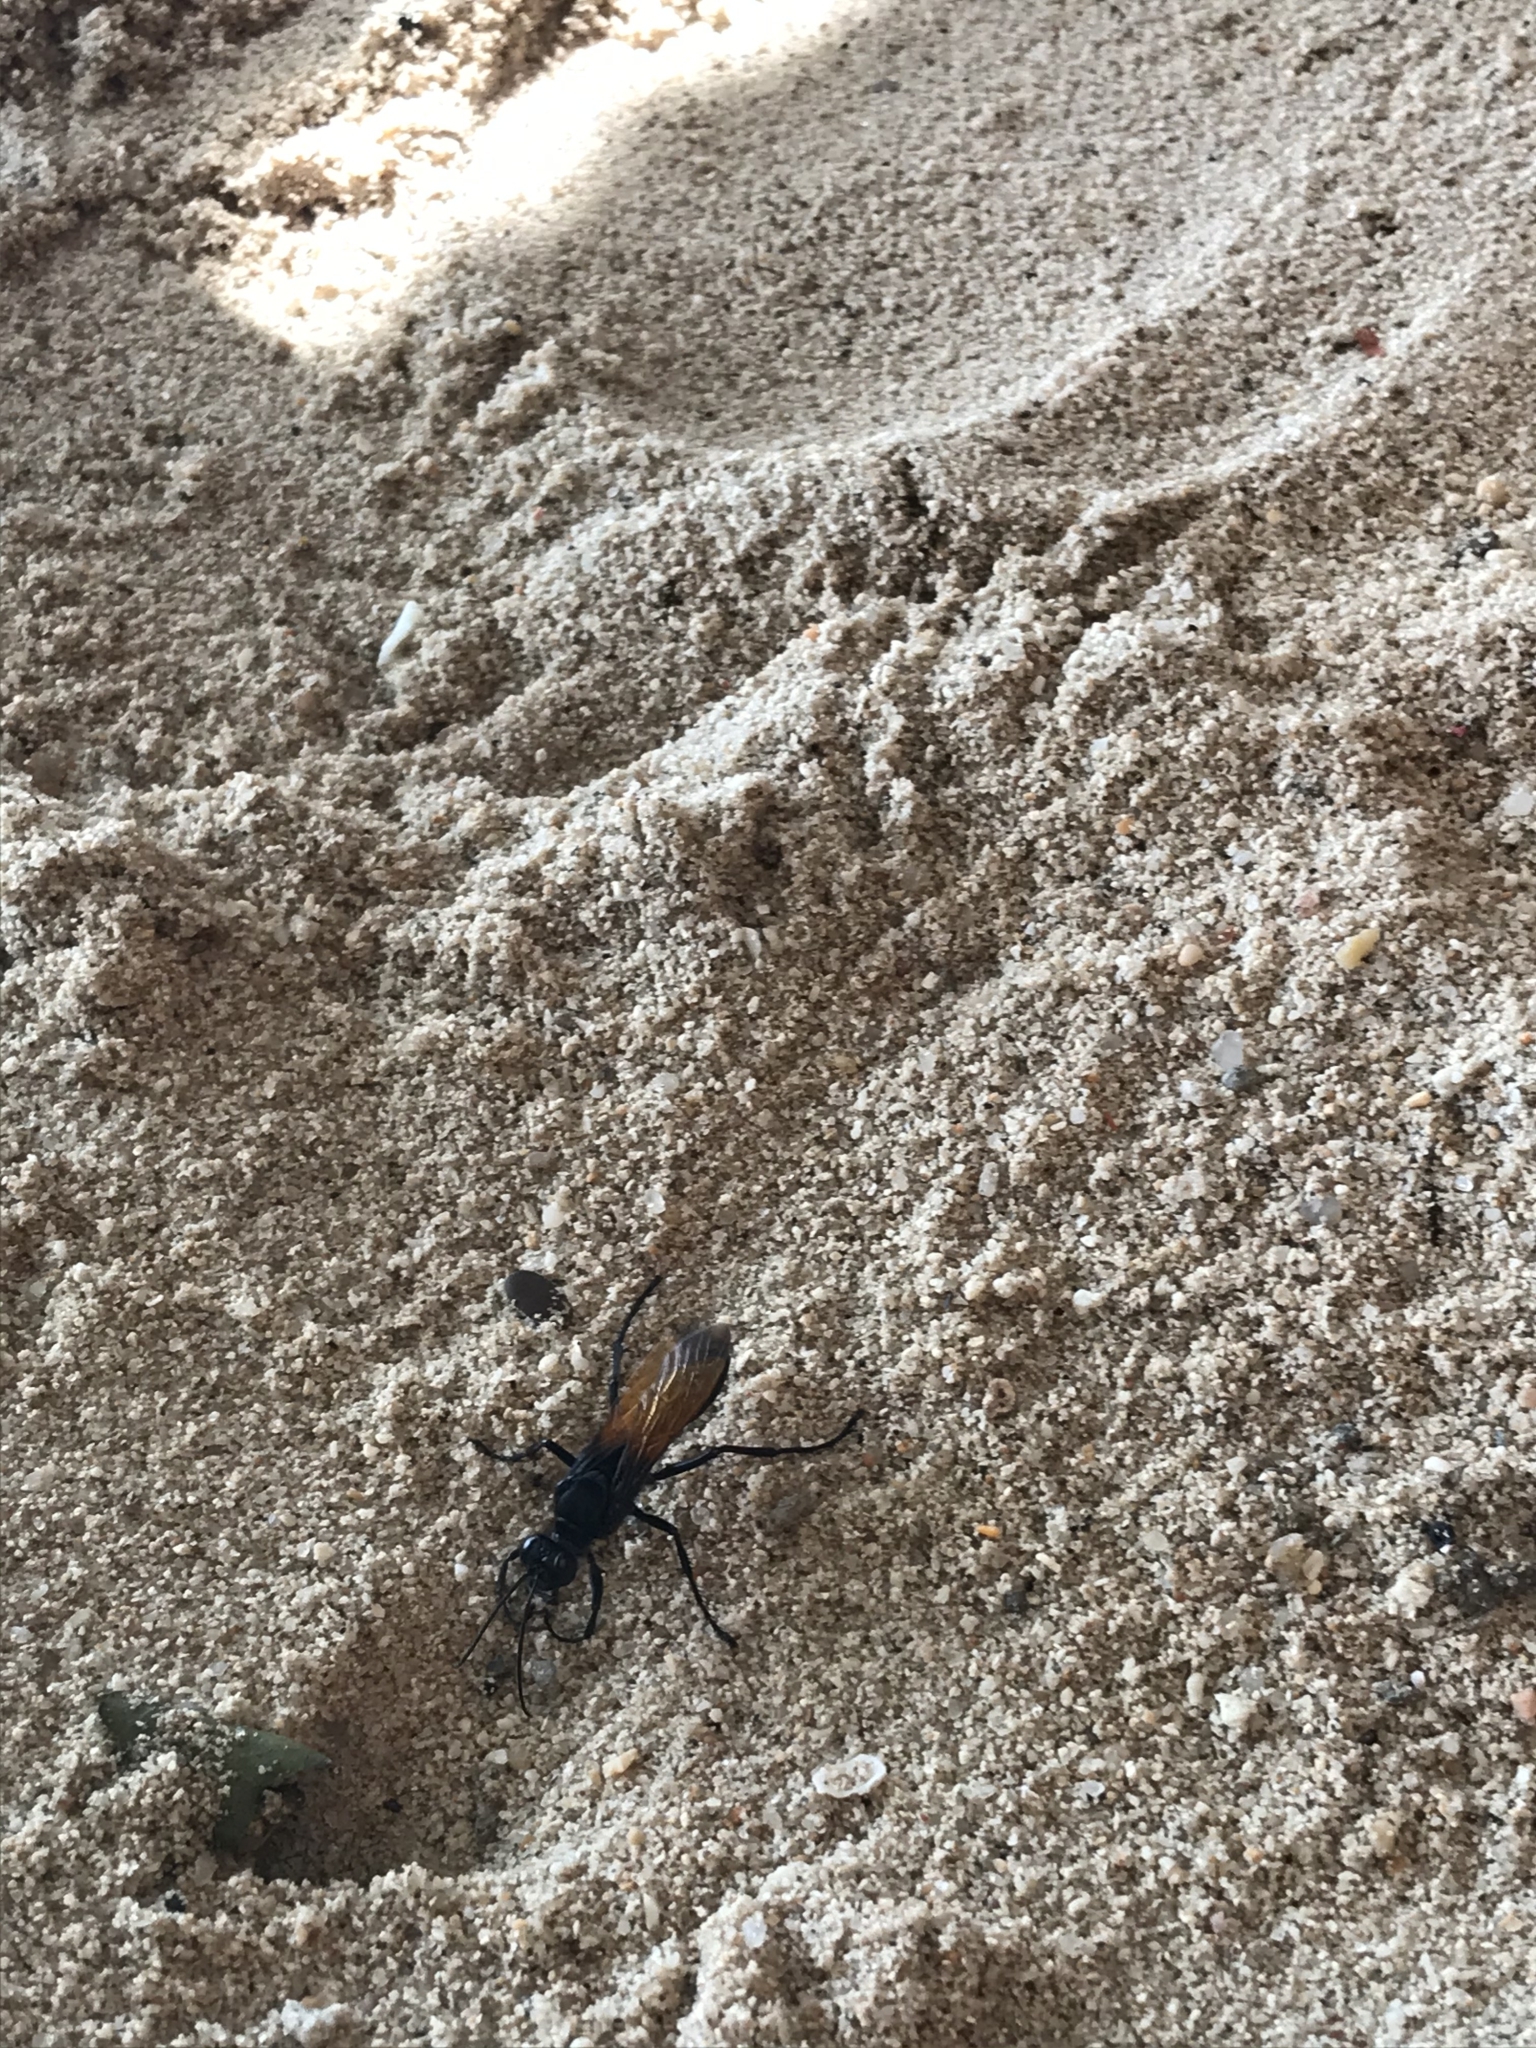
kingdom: Animalia
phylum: Arthropoda
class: Insecta
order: Hymenoptera
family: Sphecidae
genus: Sphex
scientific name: Sphex diabolicus
